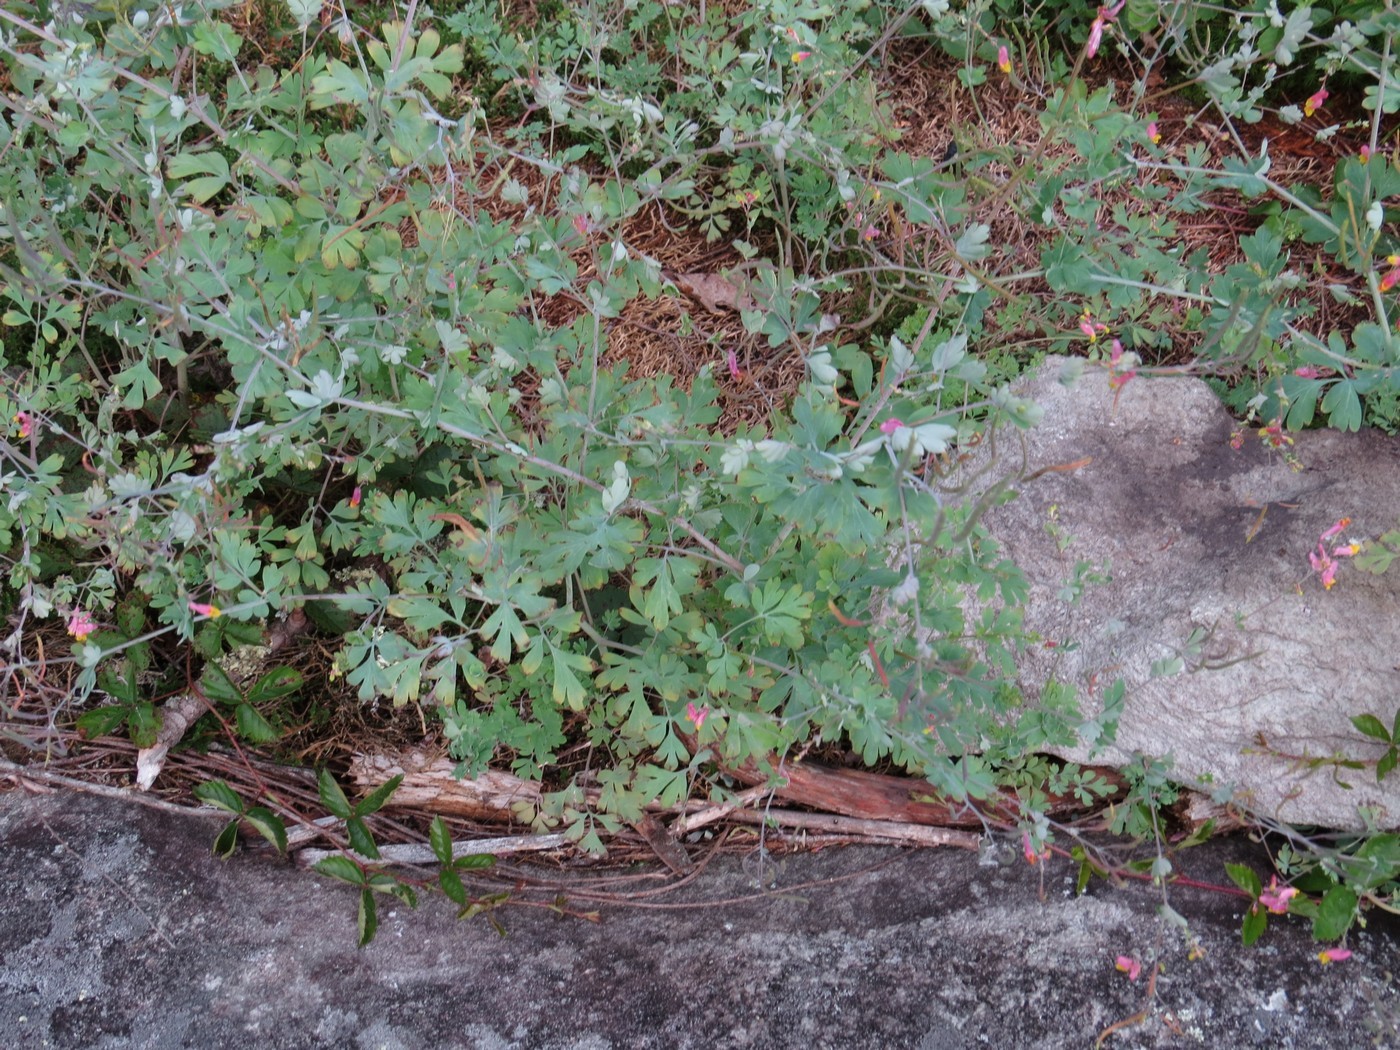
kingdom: Plantae
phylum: Tracheophyta
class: Magnoliopsida
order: Ranunculales
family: Papaveraceae
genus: Capnoides
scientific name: Capnoides sempervirens
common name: Rock harlequin
